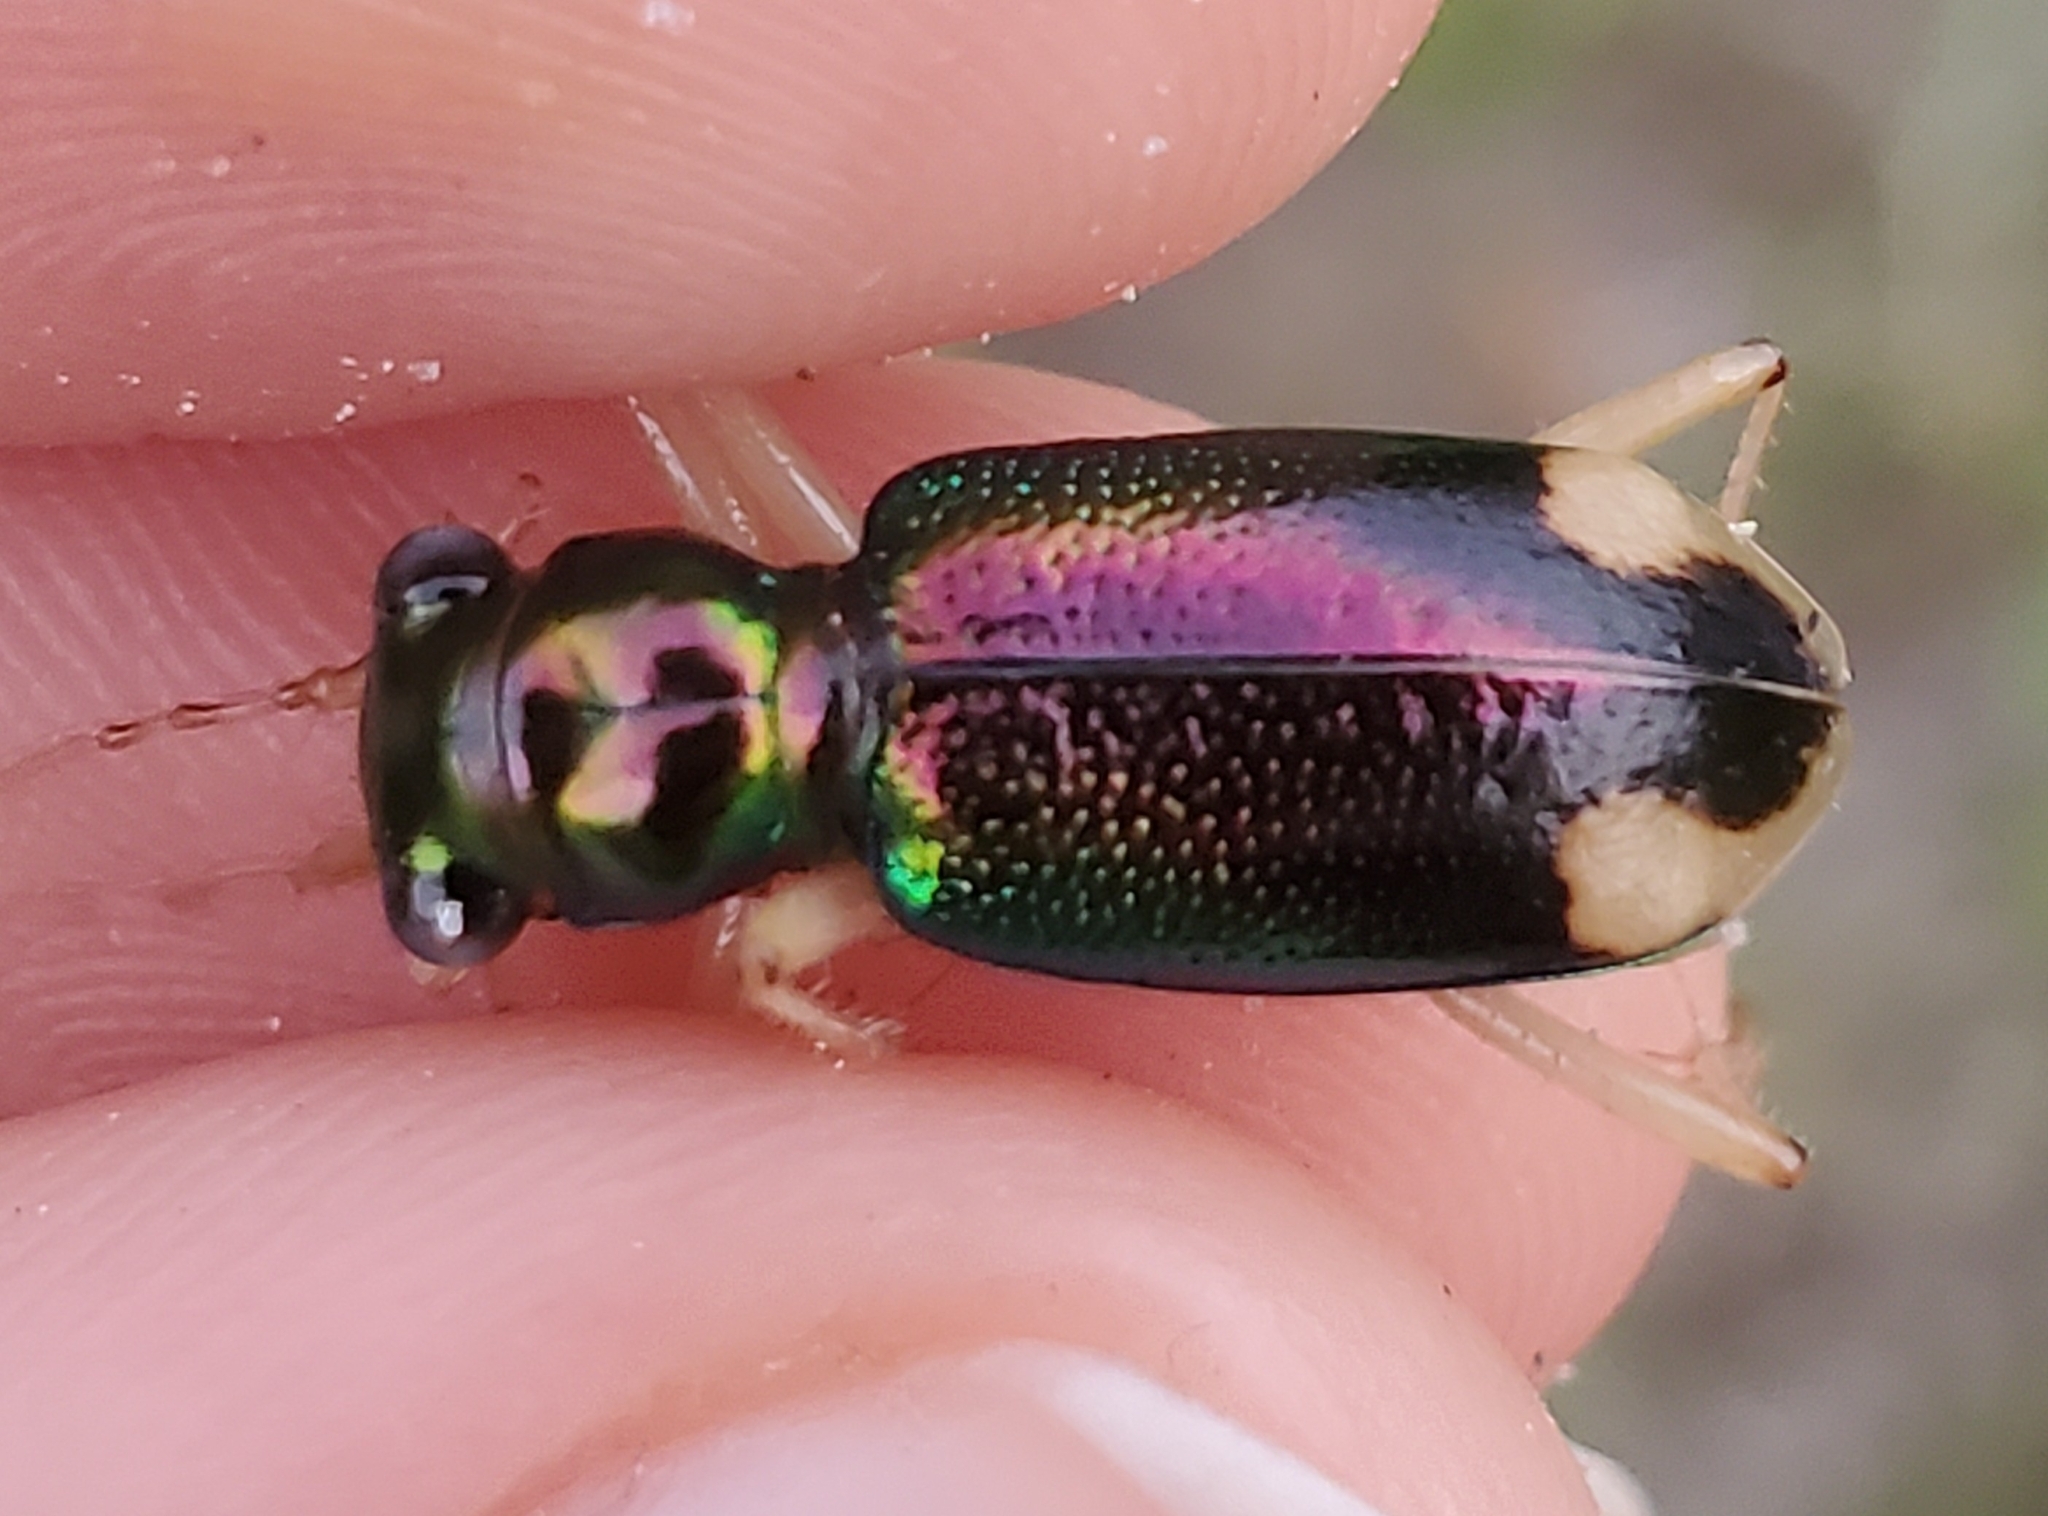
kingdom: Animalia
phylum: Arthropoda
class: Insecta
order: Coleoptera
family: Carabidae
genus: Tetracha
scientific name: Tetracha carolina
